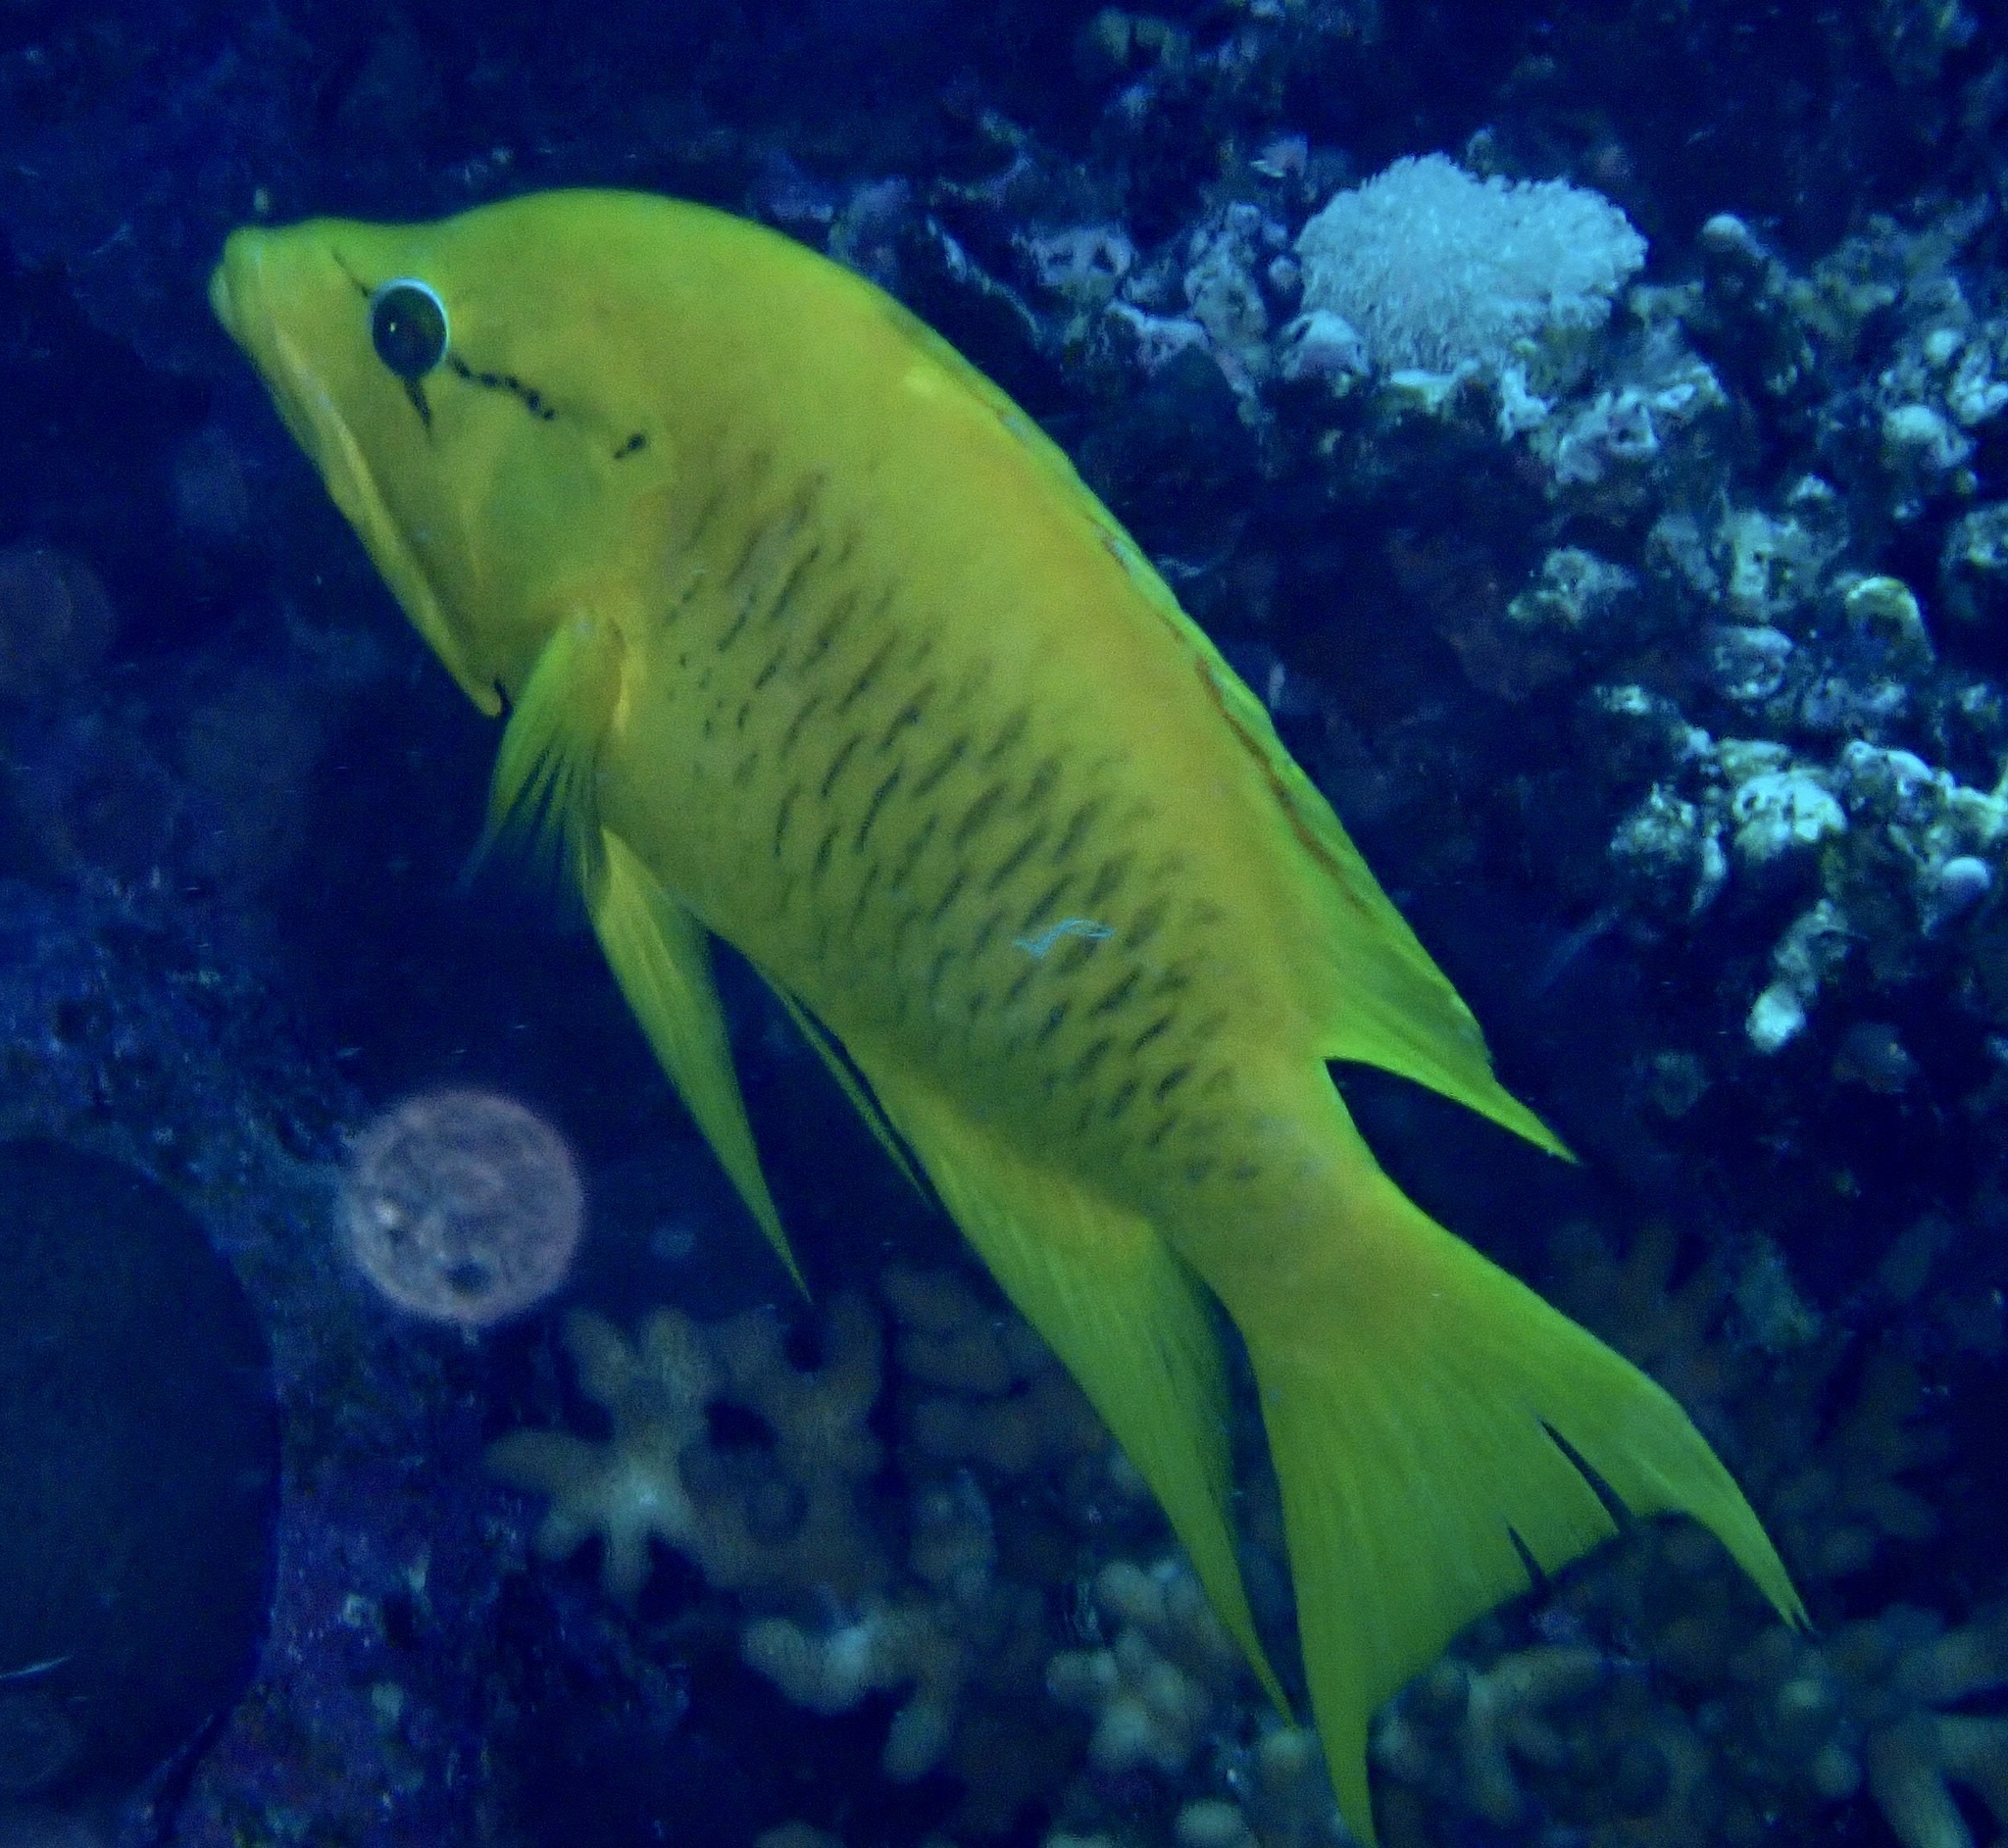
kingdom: Animalia
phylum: Chordata
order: Perciformes
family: Labridae
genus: Epibulus
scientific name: Epibulus insidiator
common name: Slingjaw wrasse
